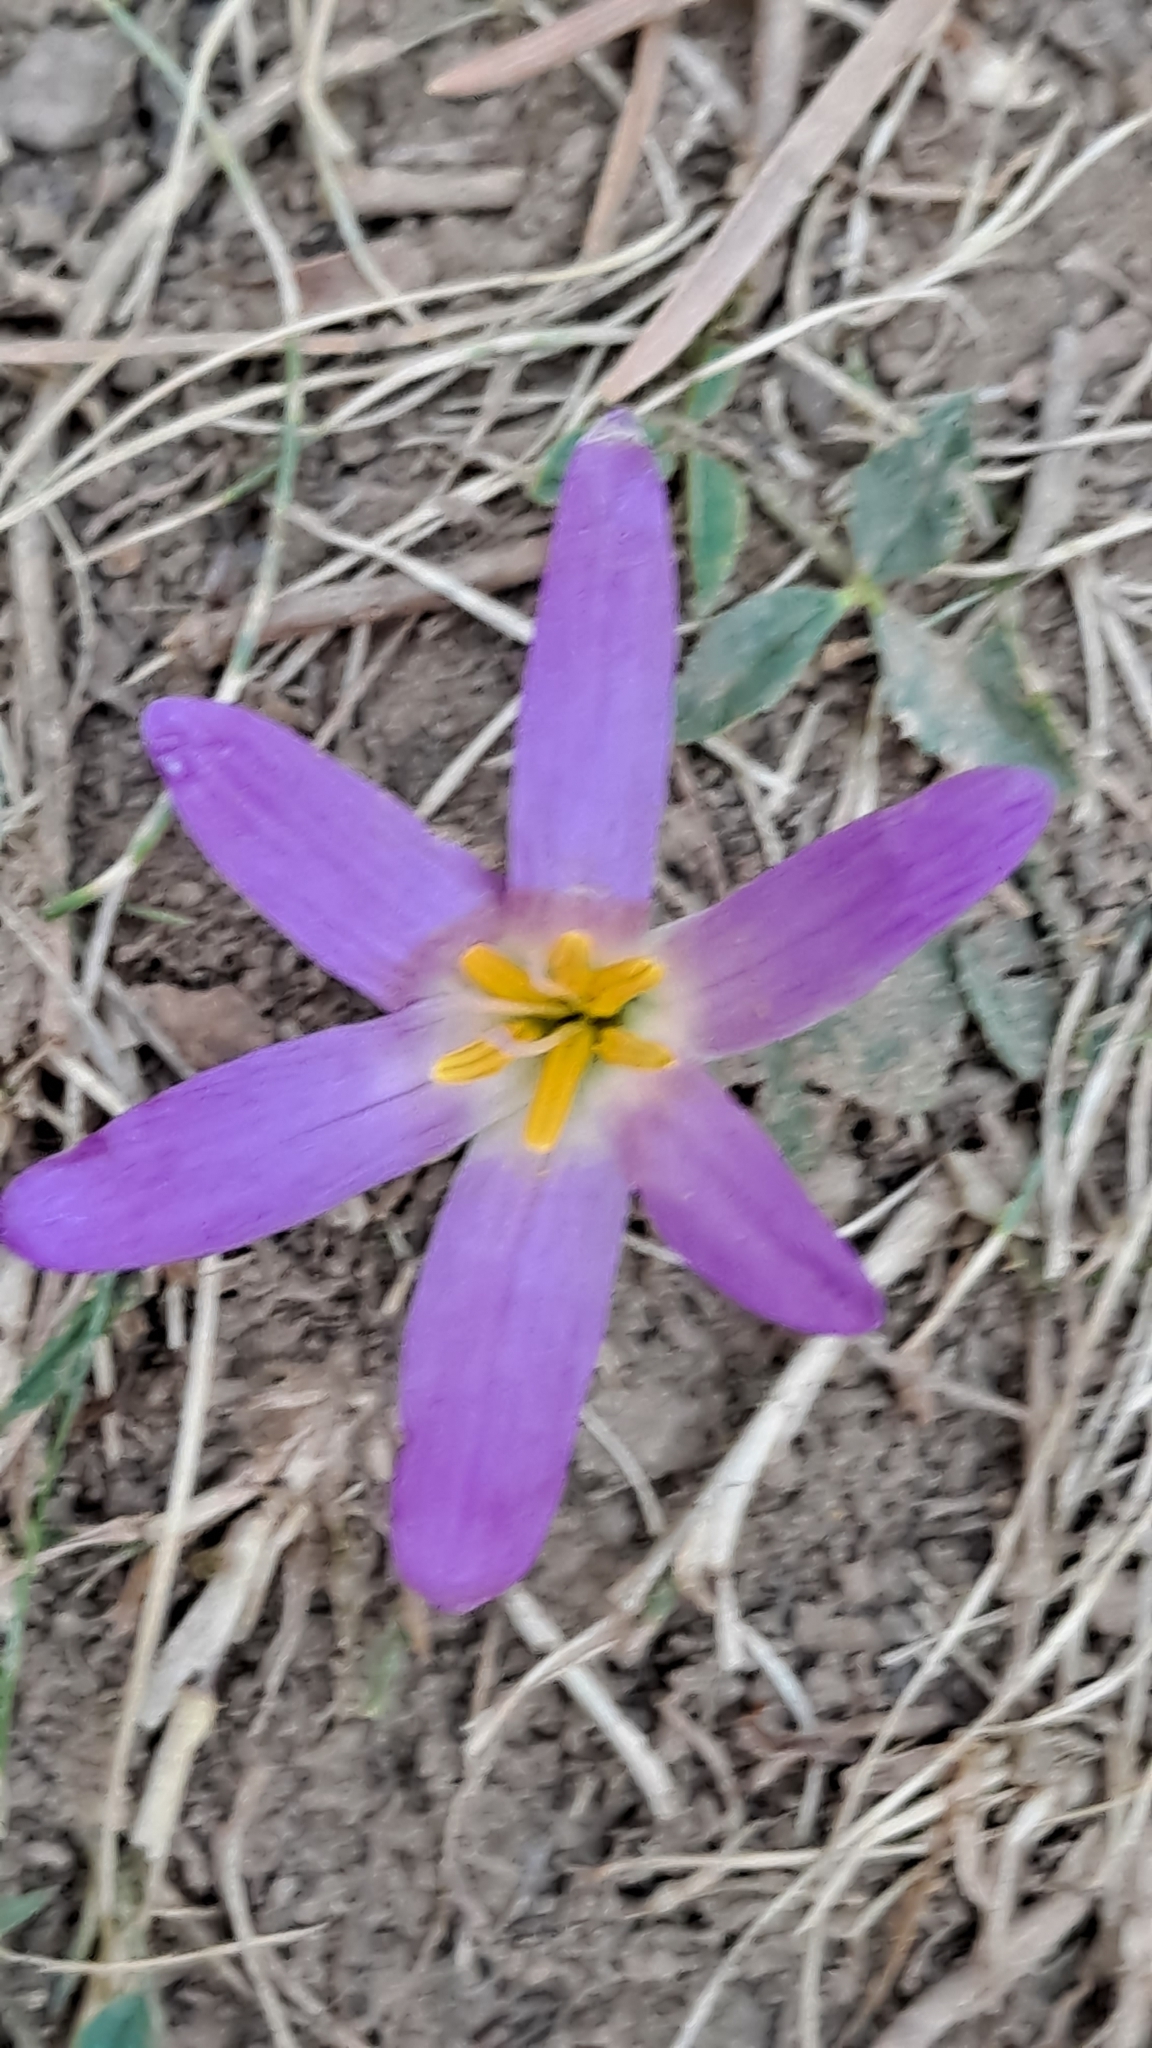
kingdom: Plantae
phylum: Tracheophyta
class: Liliopsida
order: Liliales
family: Colchicaceae
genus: Colchicum
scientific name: Colchicum montanum
